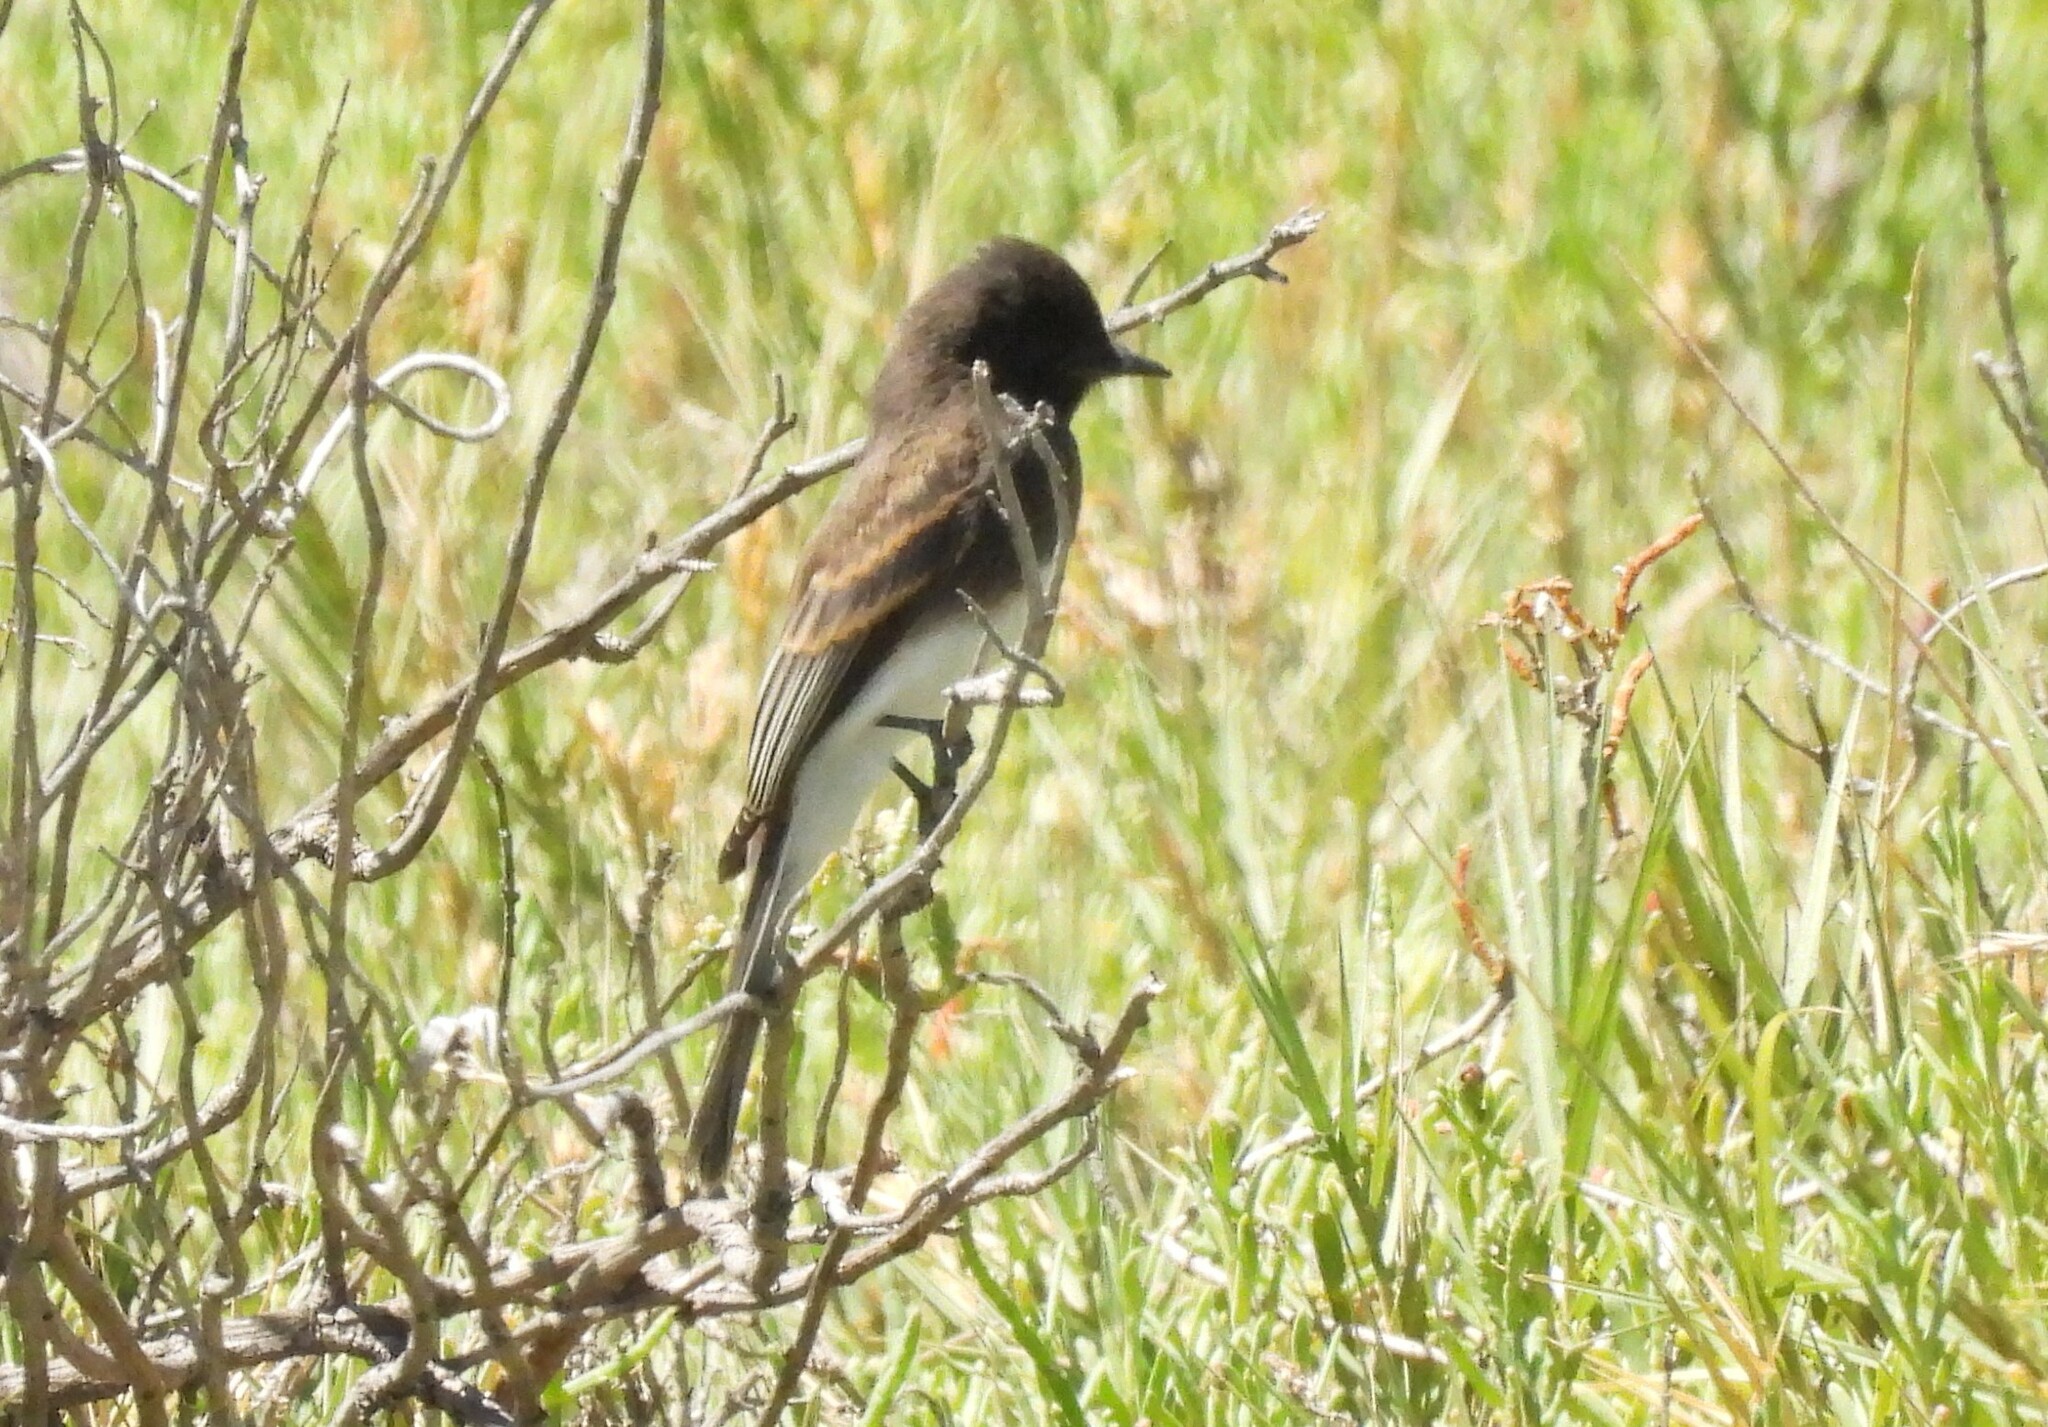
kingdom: Animalia
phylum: Chordata
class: Aves
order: Passeriformes
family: Tyrannidae
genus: Sayornis
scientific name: Sayornis nigricans
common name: Black phoebe
